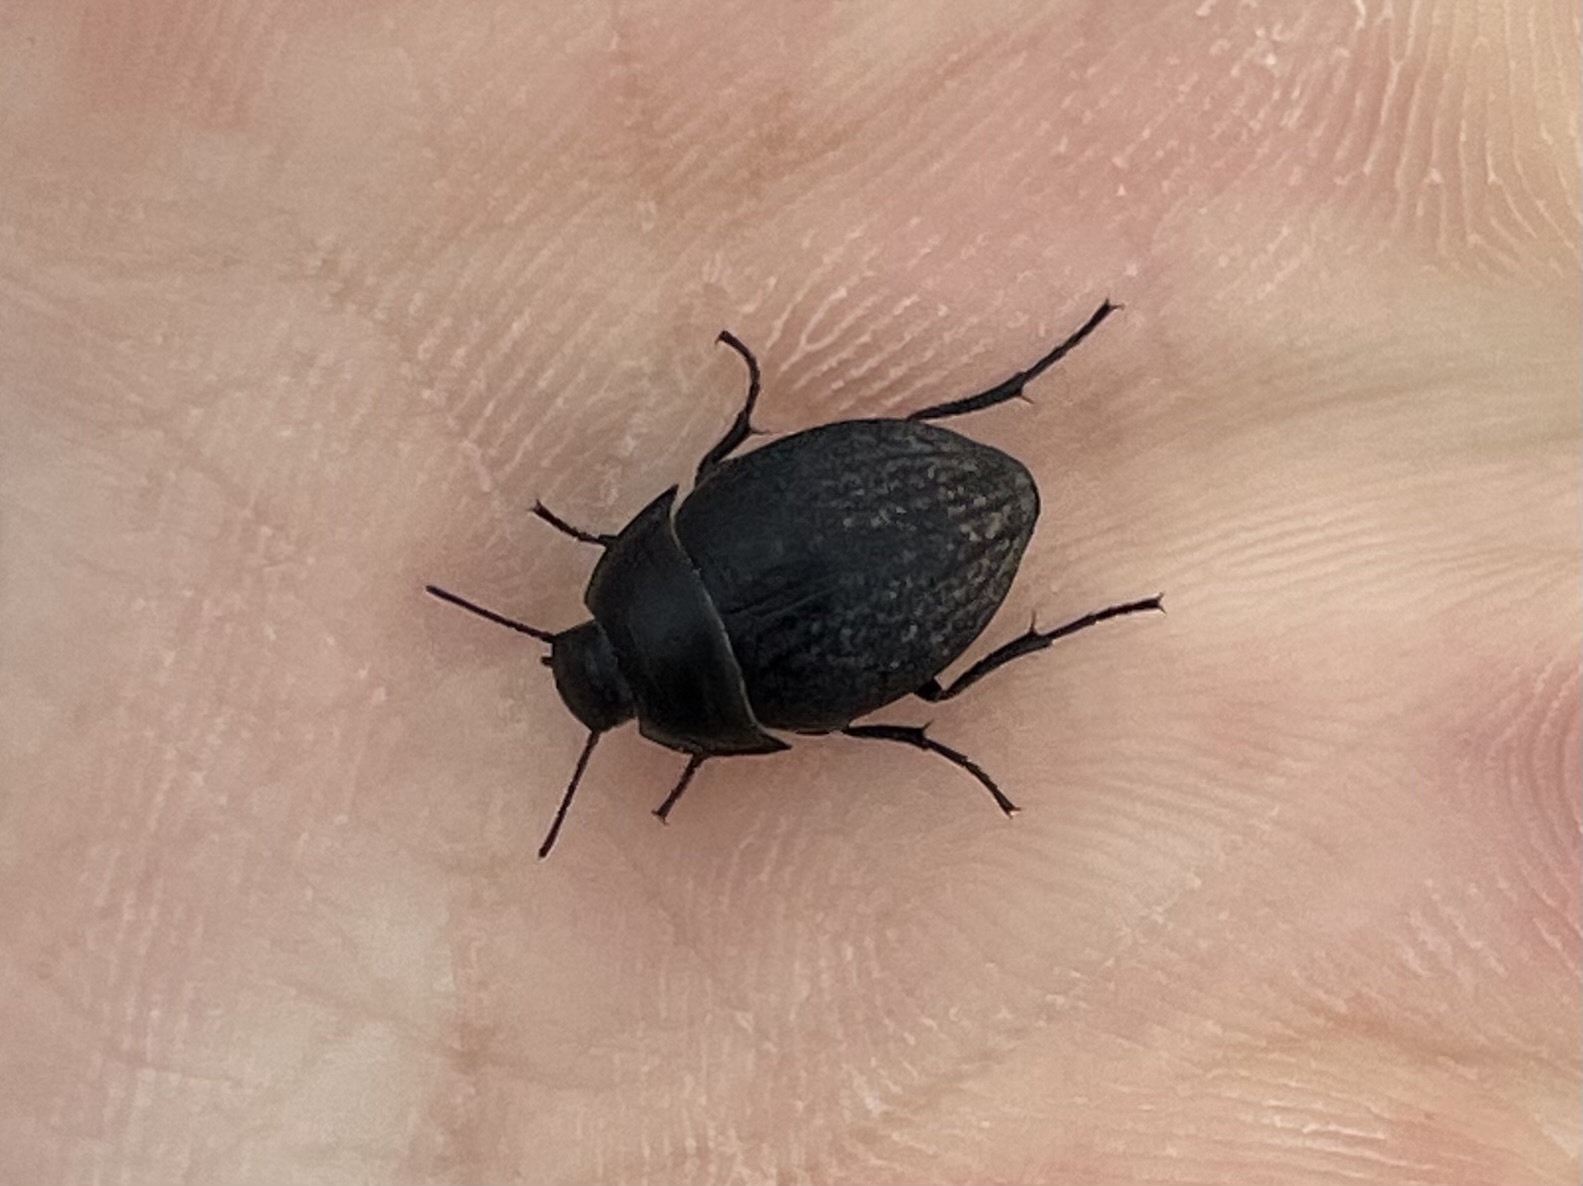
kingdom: Animalia
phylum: Arthropoda
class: Insecta
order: Coleoptera
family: Tenebrionidae
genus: Eusattus
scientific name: Eusattus reticulatus
